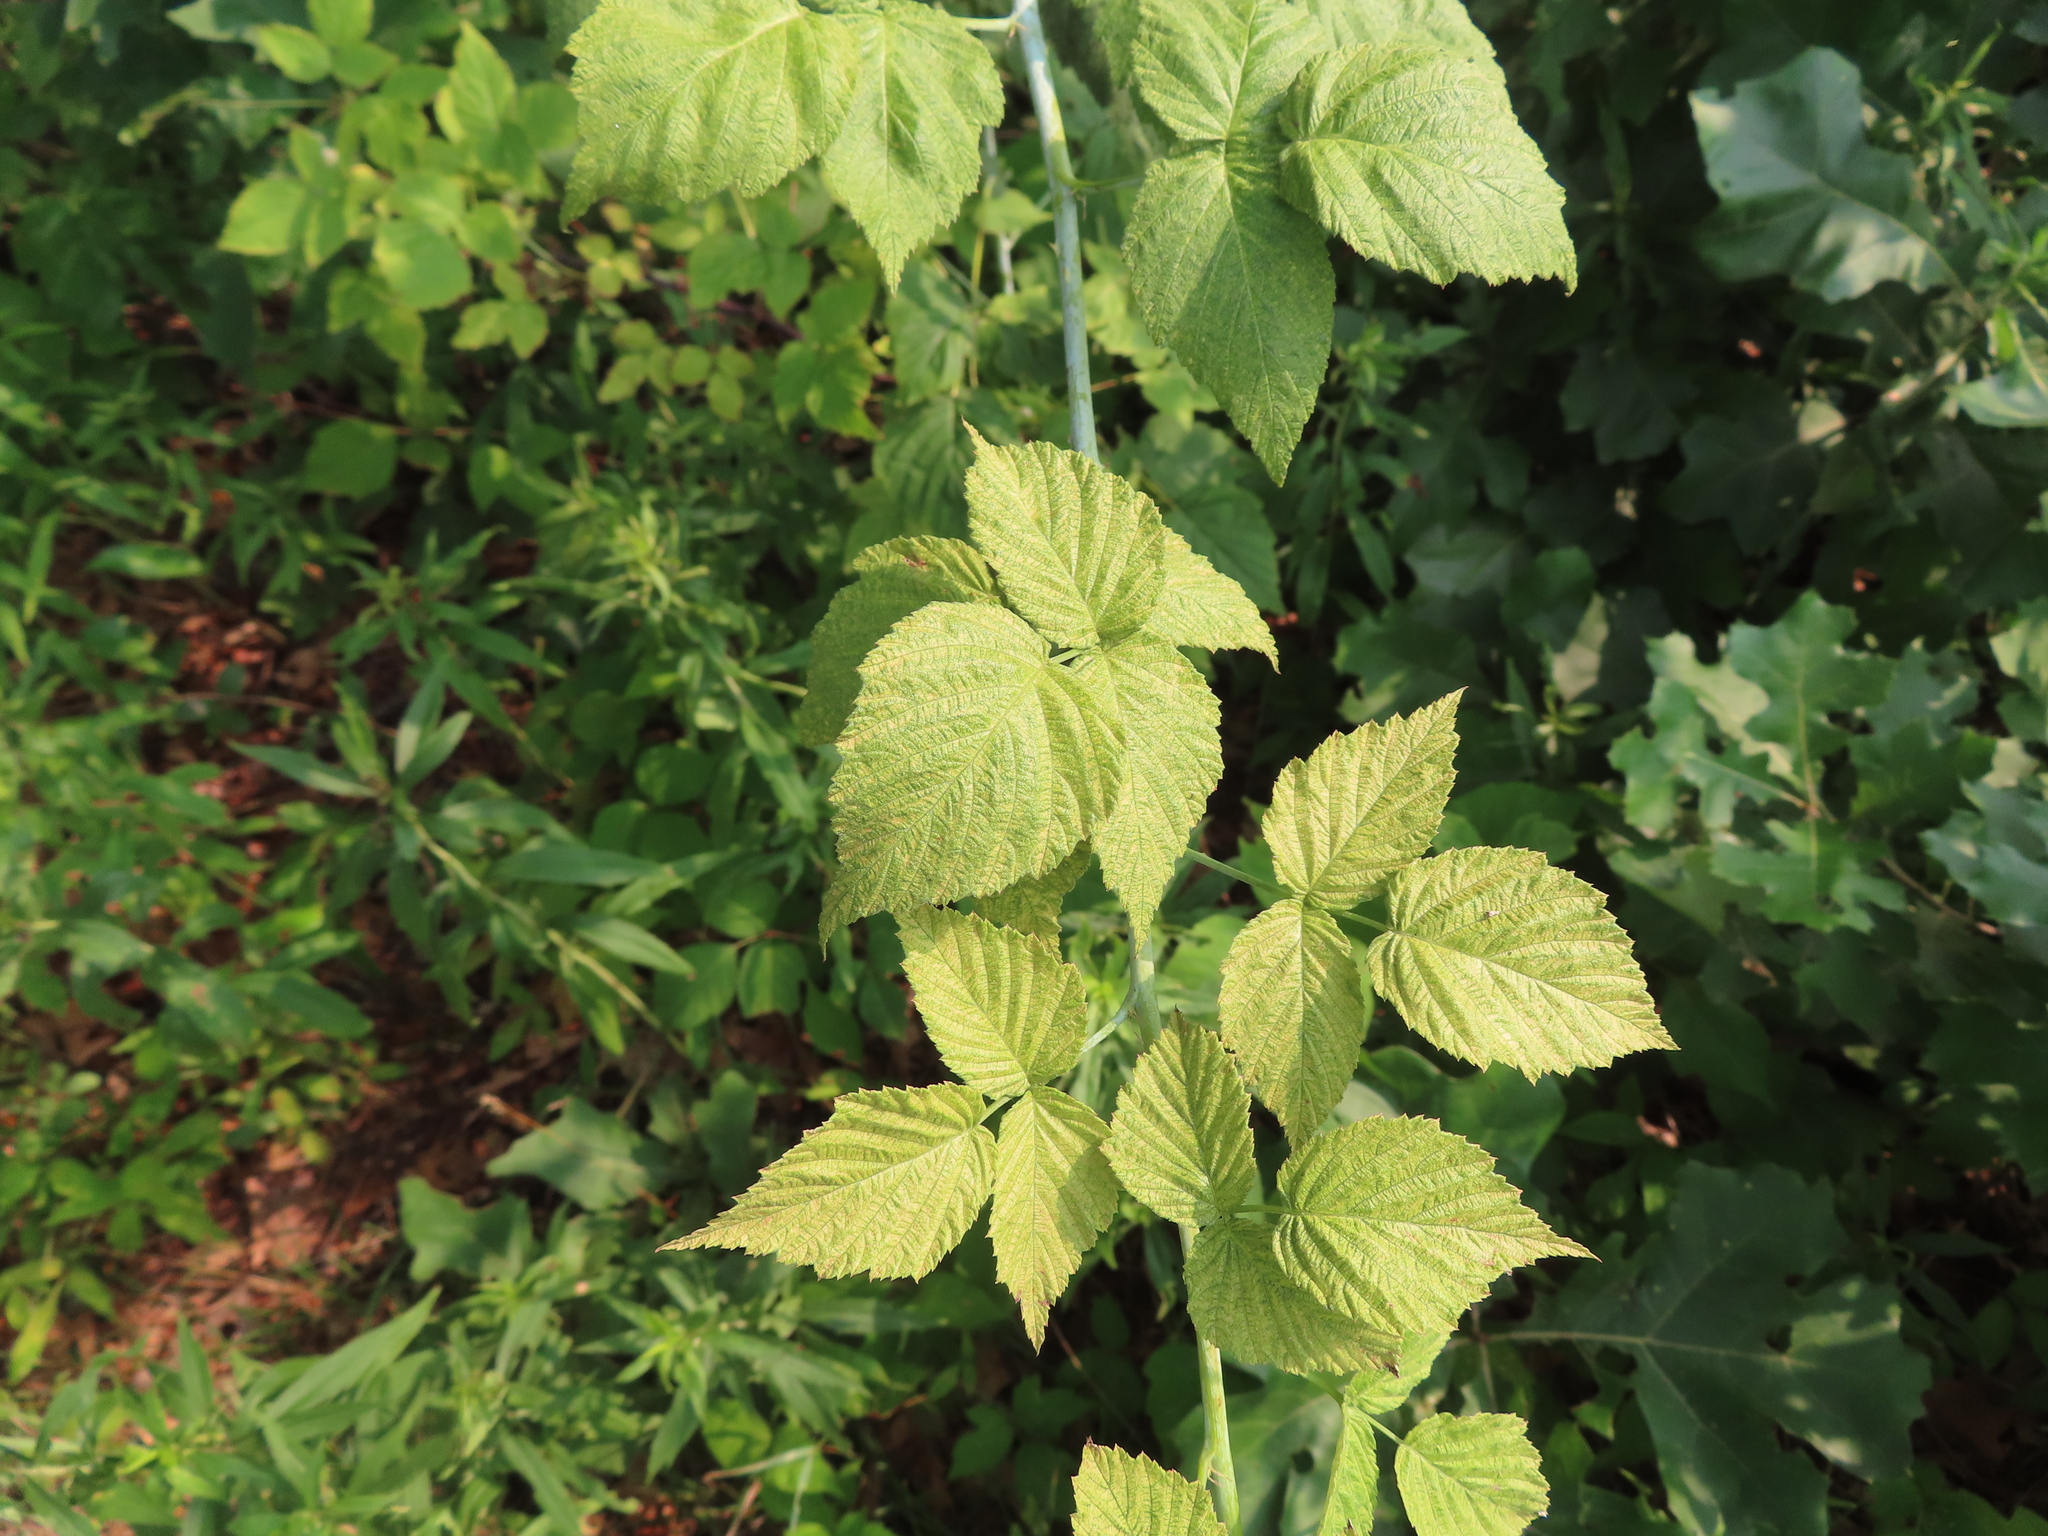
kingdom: Plantae
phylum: Tracheophyta
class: Magnoliopsida
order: Rosales
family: Rosaceae
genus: Rubus
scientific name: Rubus occidentalis
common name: Black raspberry
